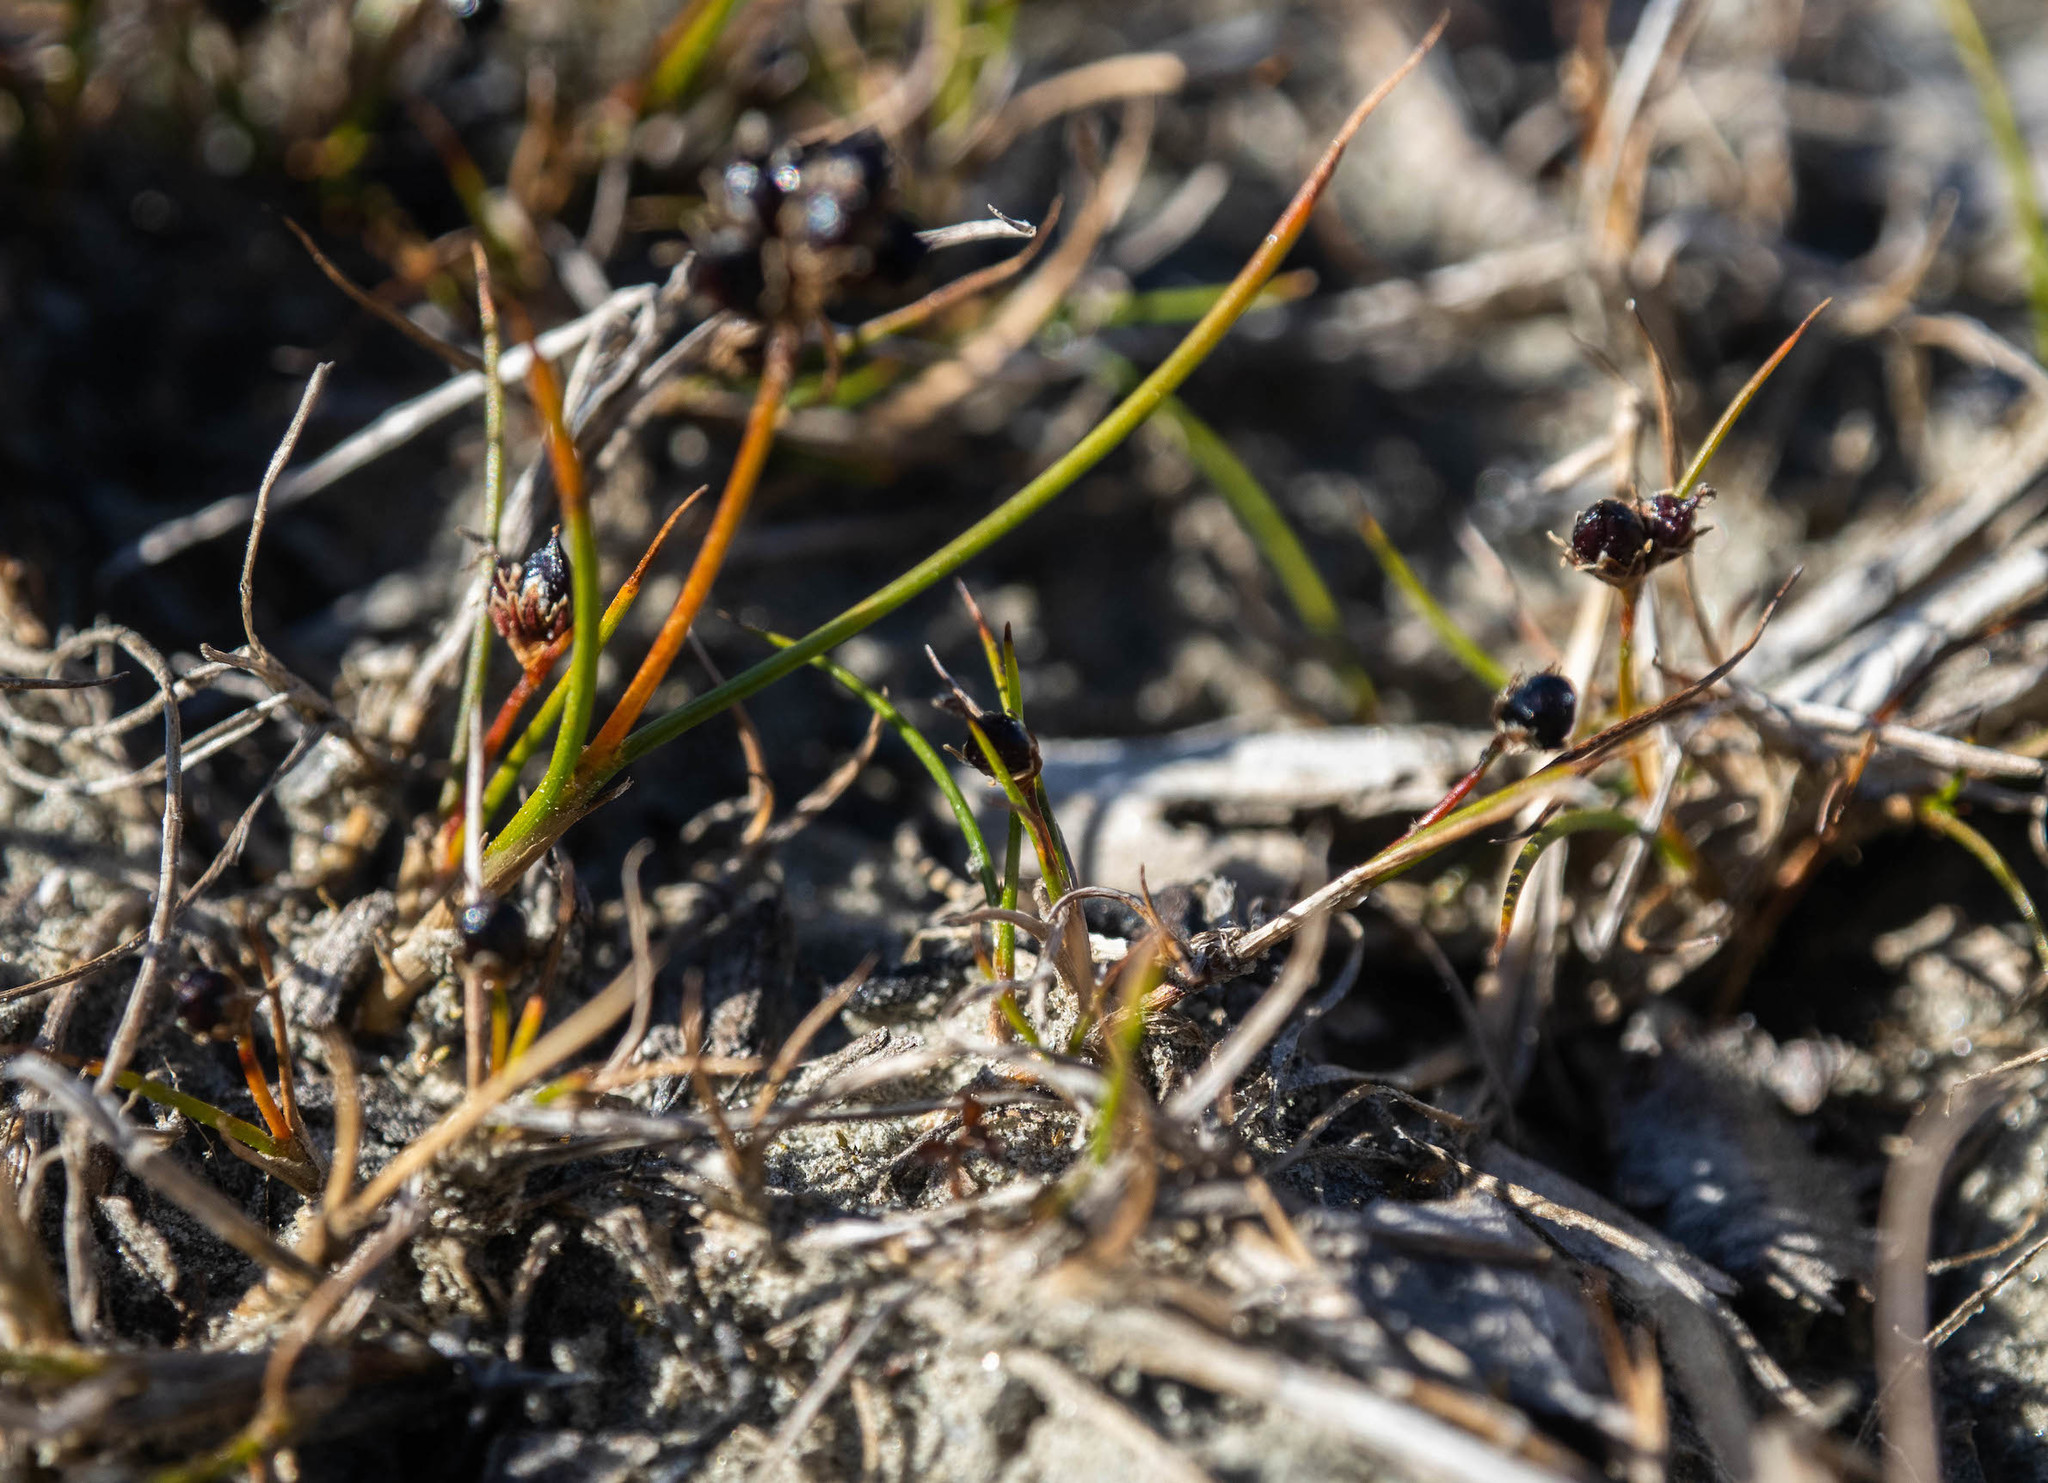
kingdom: Plantae
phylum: Tracheophyta
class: Liliopsida
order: Poales
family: Juncaceae
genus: Juncus
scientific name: Juncus novae-zelandiae
